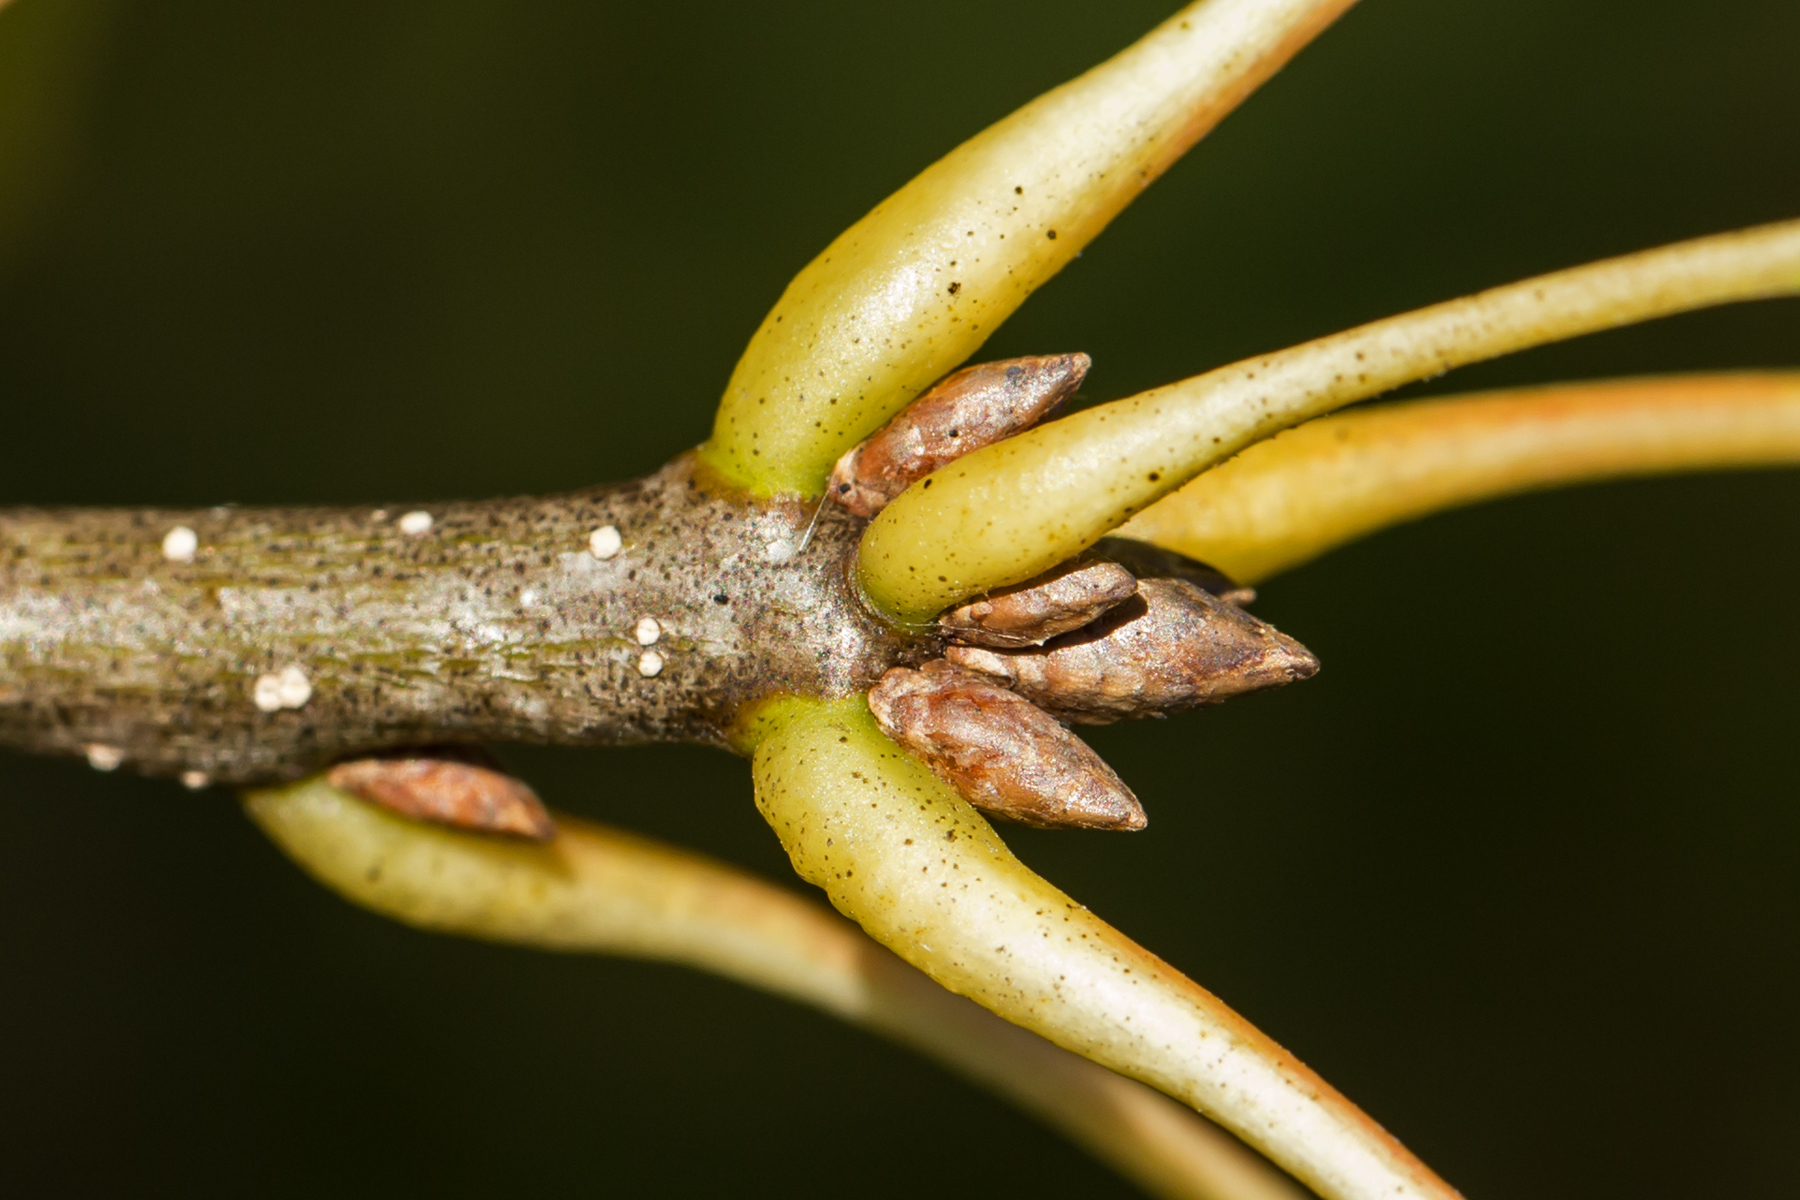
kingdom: Plantae
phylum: Tracheophyta
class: Magnoliopsida
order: Fagales
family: Fagaceae
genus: Quercus
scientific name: Quercus palustris
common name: Pin oak
